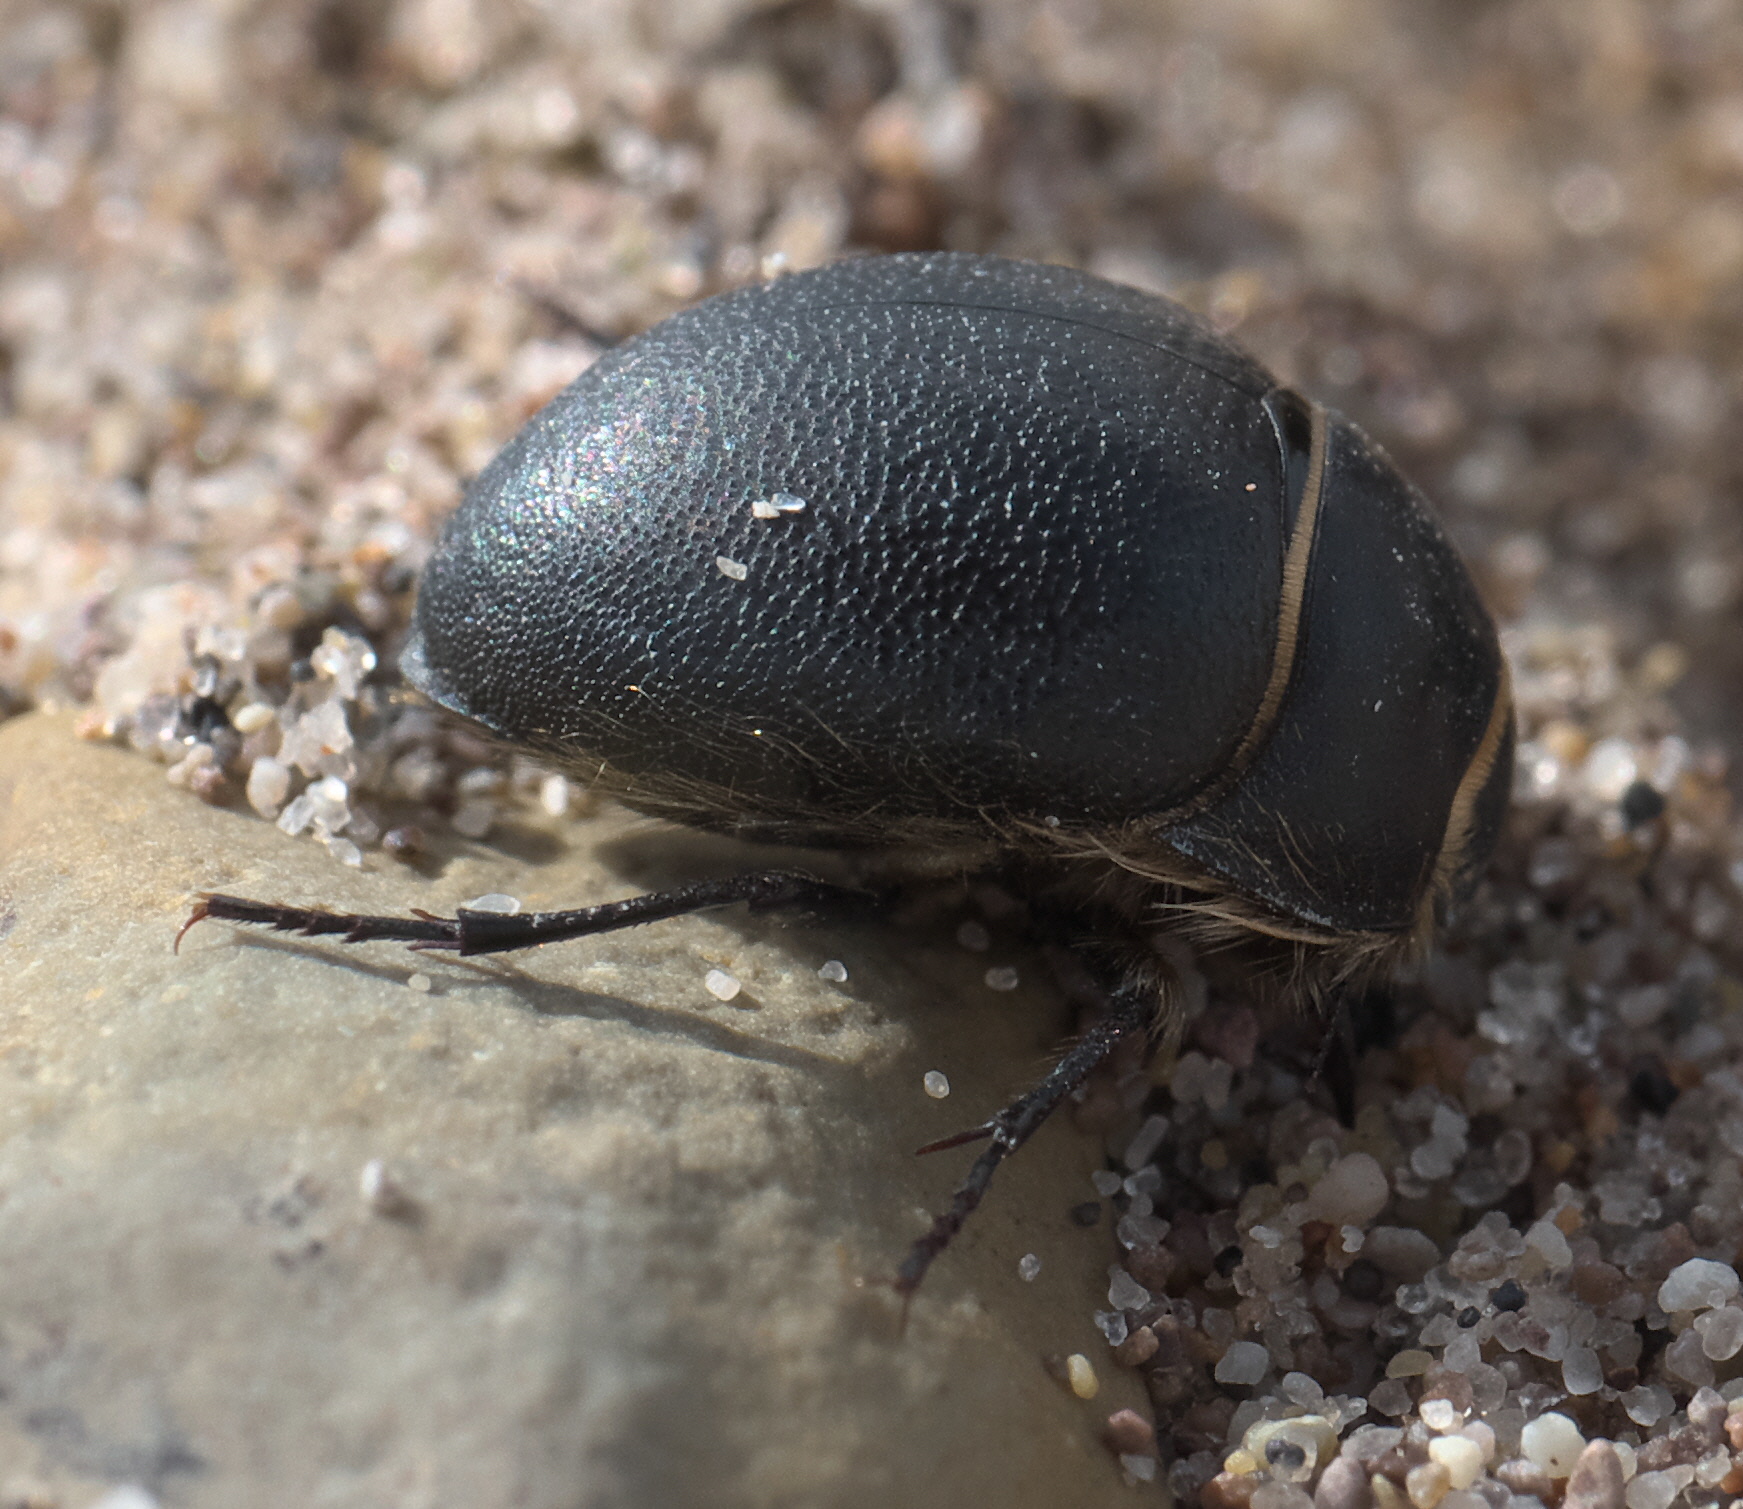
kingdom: Animalia
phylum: Arthropoda
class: Insecta
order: Coleoptera
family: Tenebrionidae
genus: Eusattus
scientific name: Eusattus muricatus
